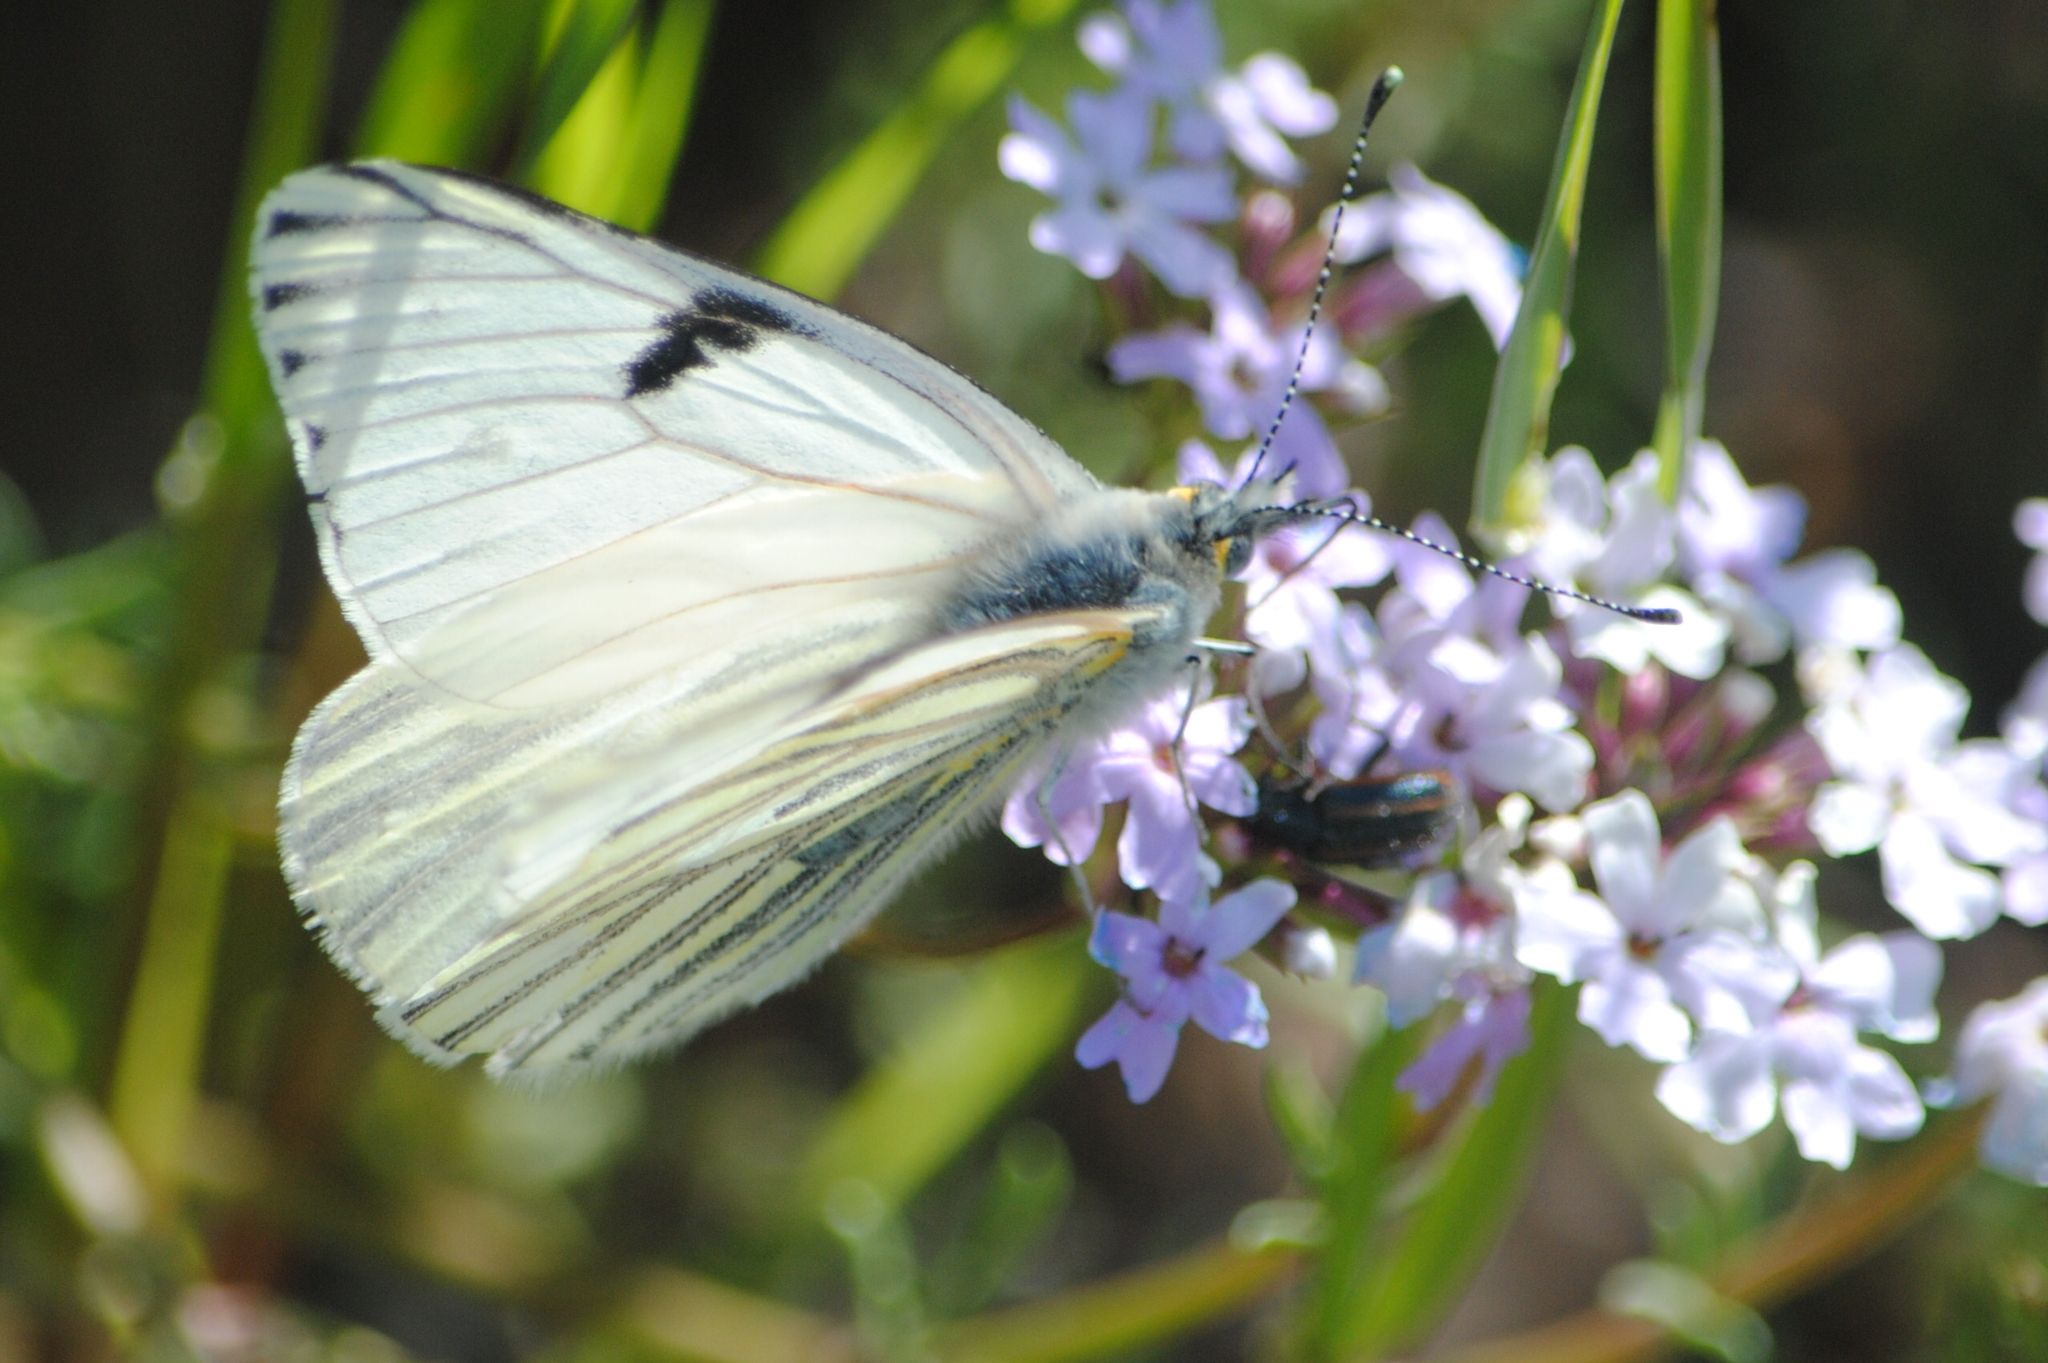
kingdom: Animalia
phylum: Arthropoda
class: Insecta
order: Lepidoptera
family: Pieridae
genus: Tatochila
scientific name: Tatochila mercedis
